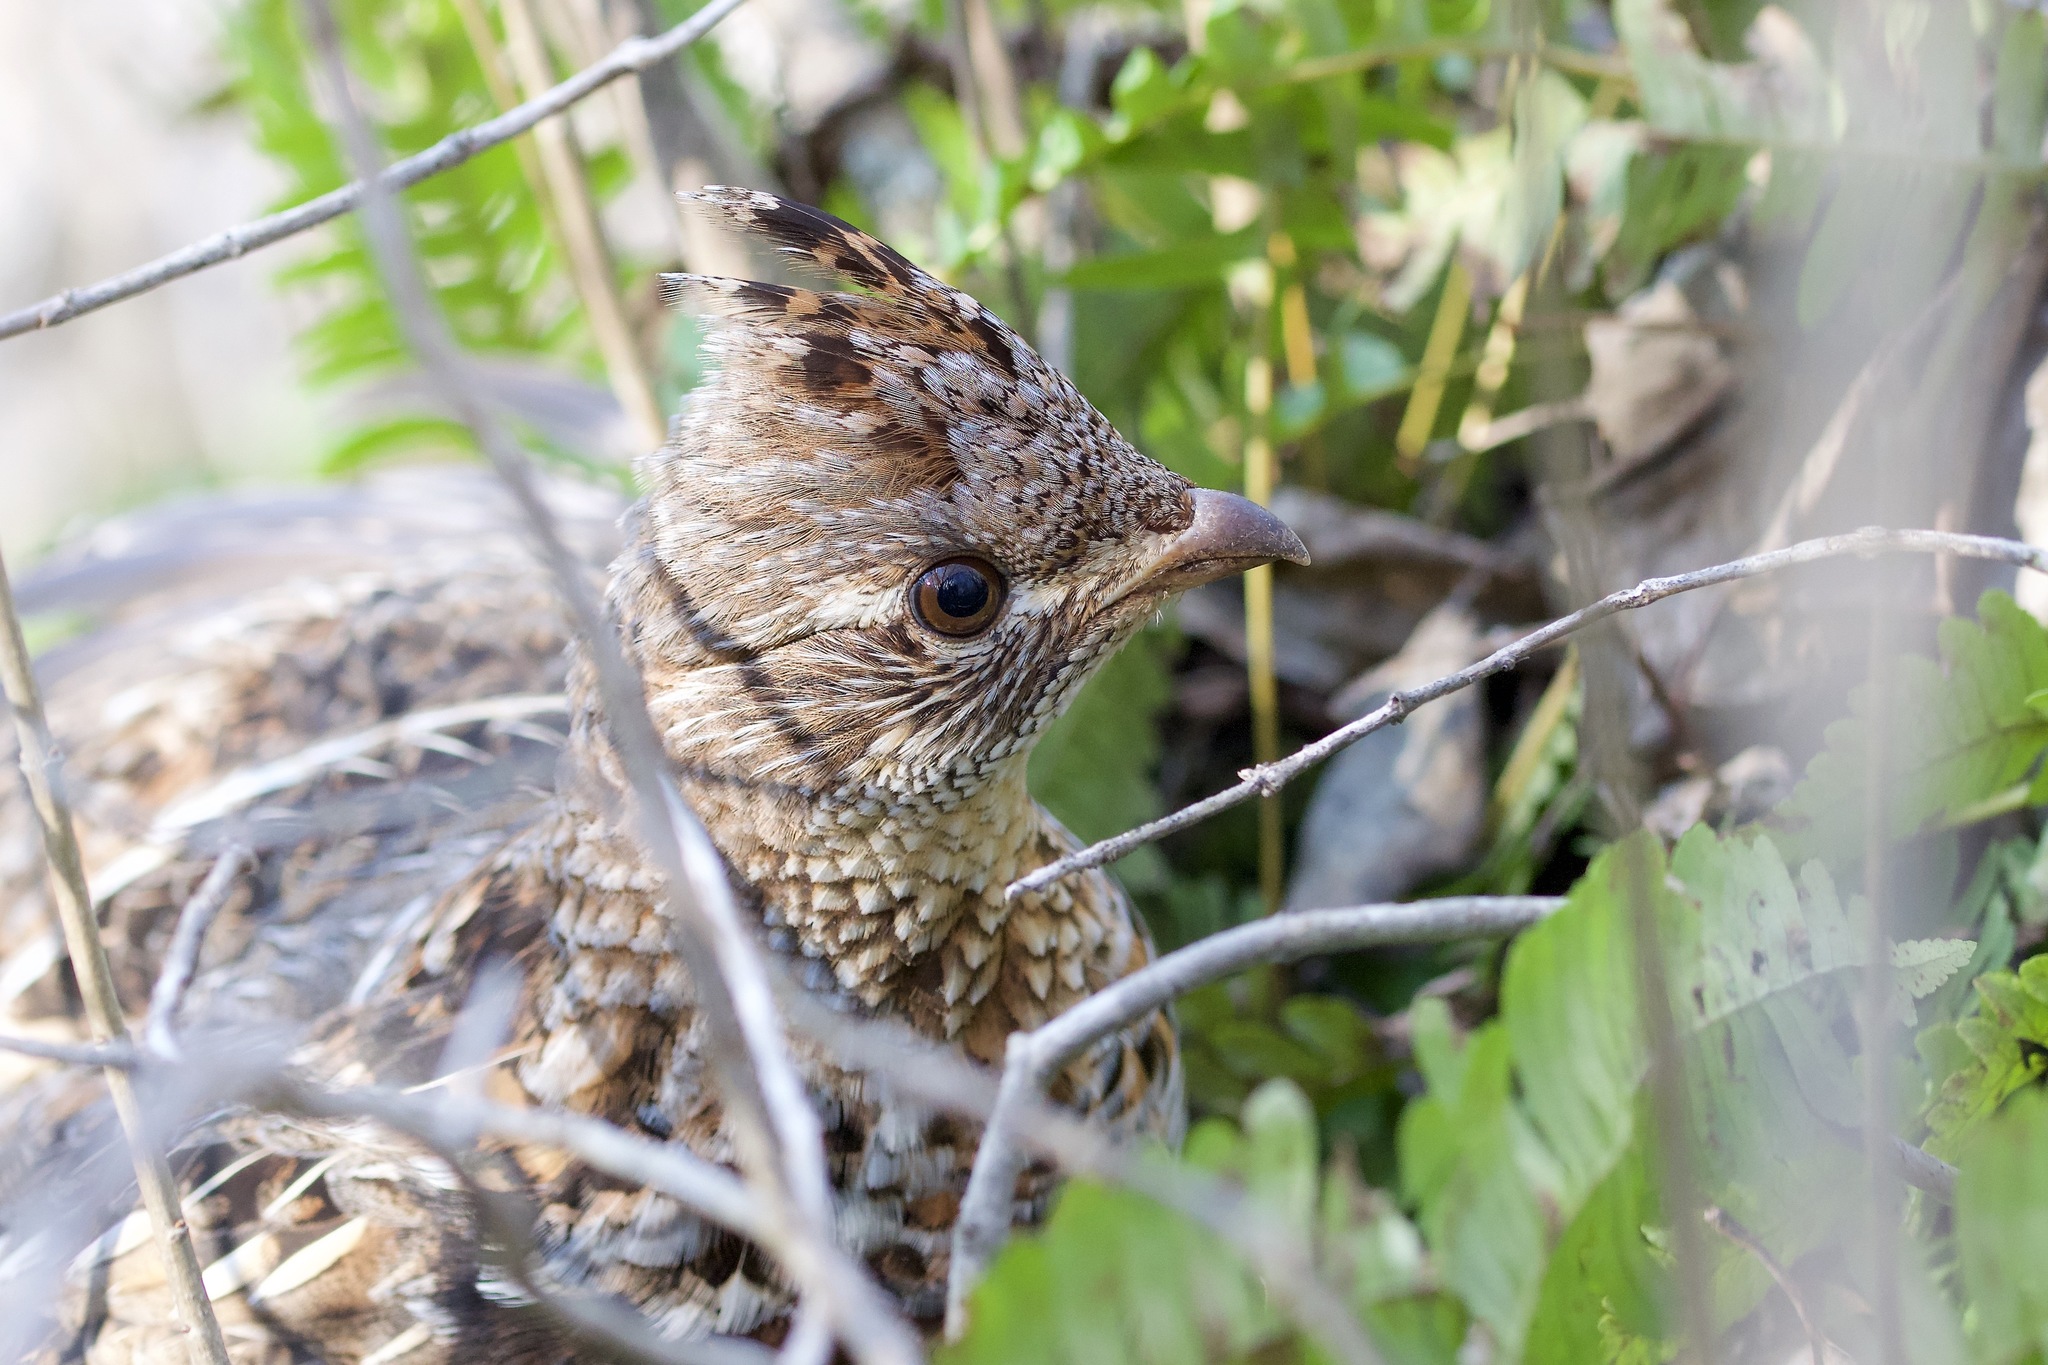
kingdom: Animalia
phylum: Chordata
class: Aves
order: Galliformes
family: Phasianidae
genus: Bonasa
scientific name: Bonasa umbellus
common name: Ruffed grouse
